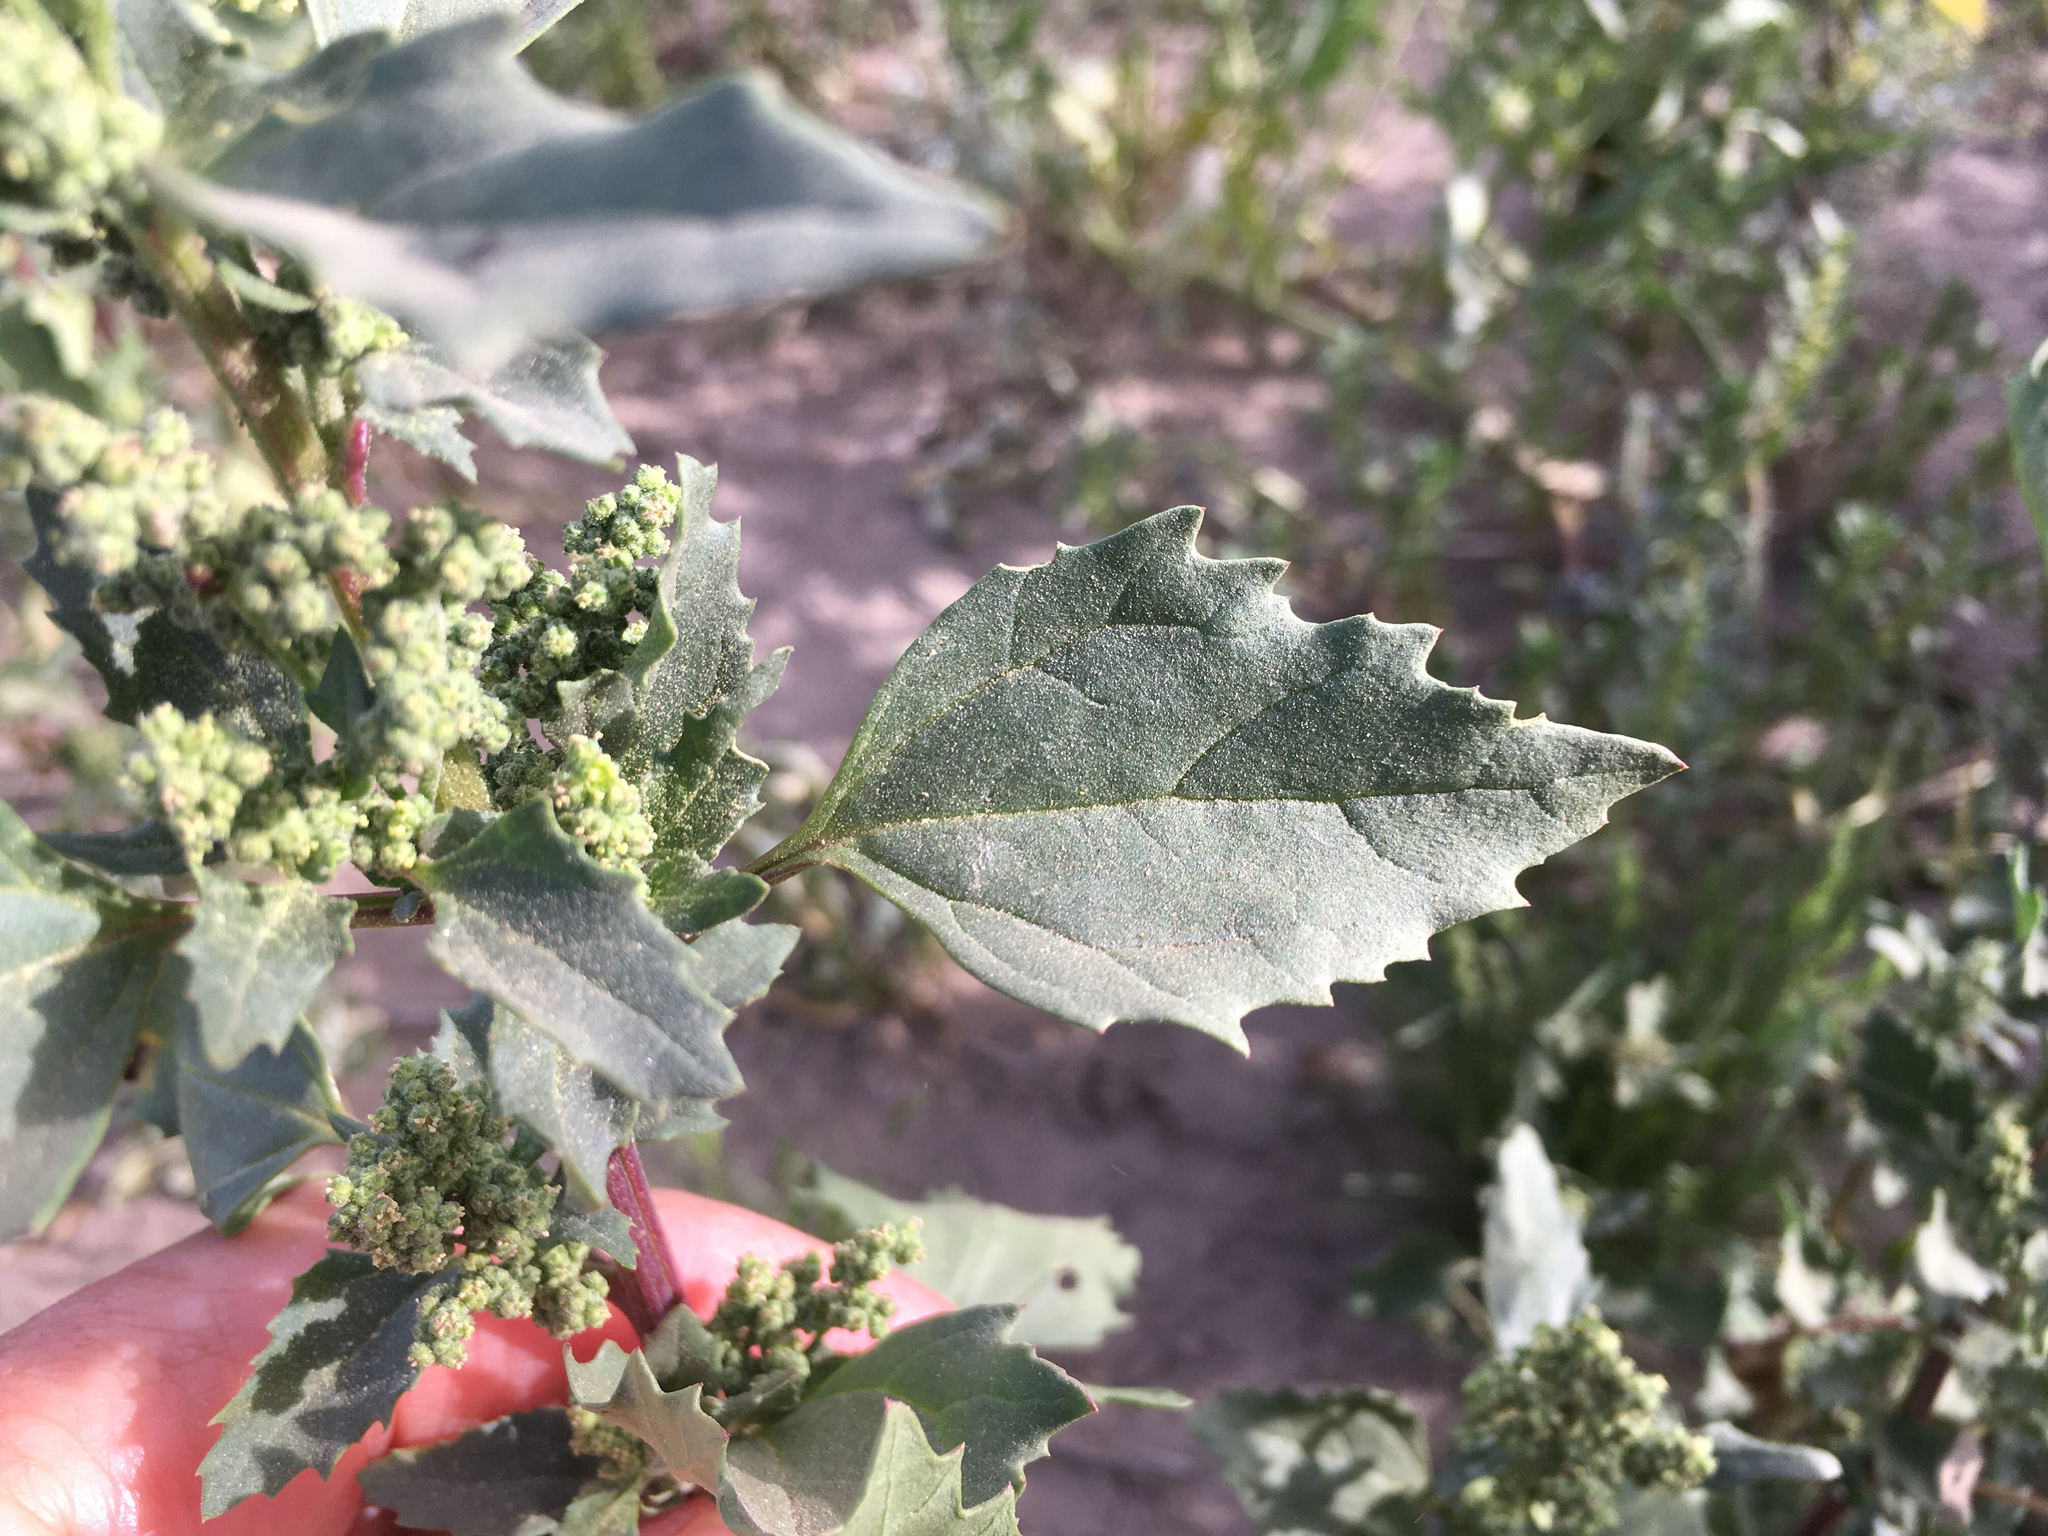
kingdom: Plantae
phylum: Tracheophyta
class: Magnoliopsida
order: Caryophyllales
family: Amaranthaceae
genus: Chenopodiastrum
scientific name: Chenopodiastrum murale
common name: Sowbane
